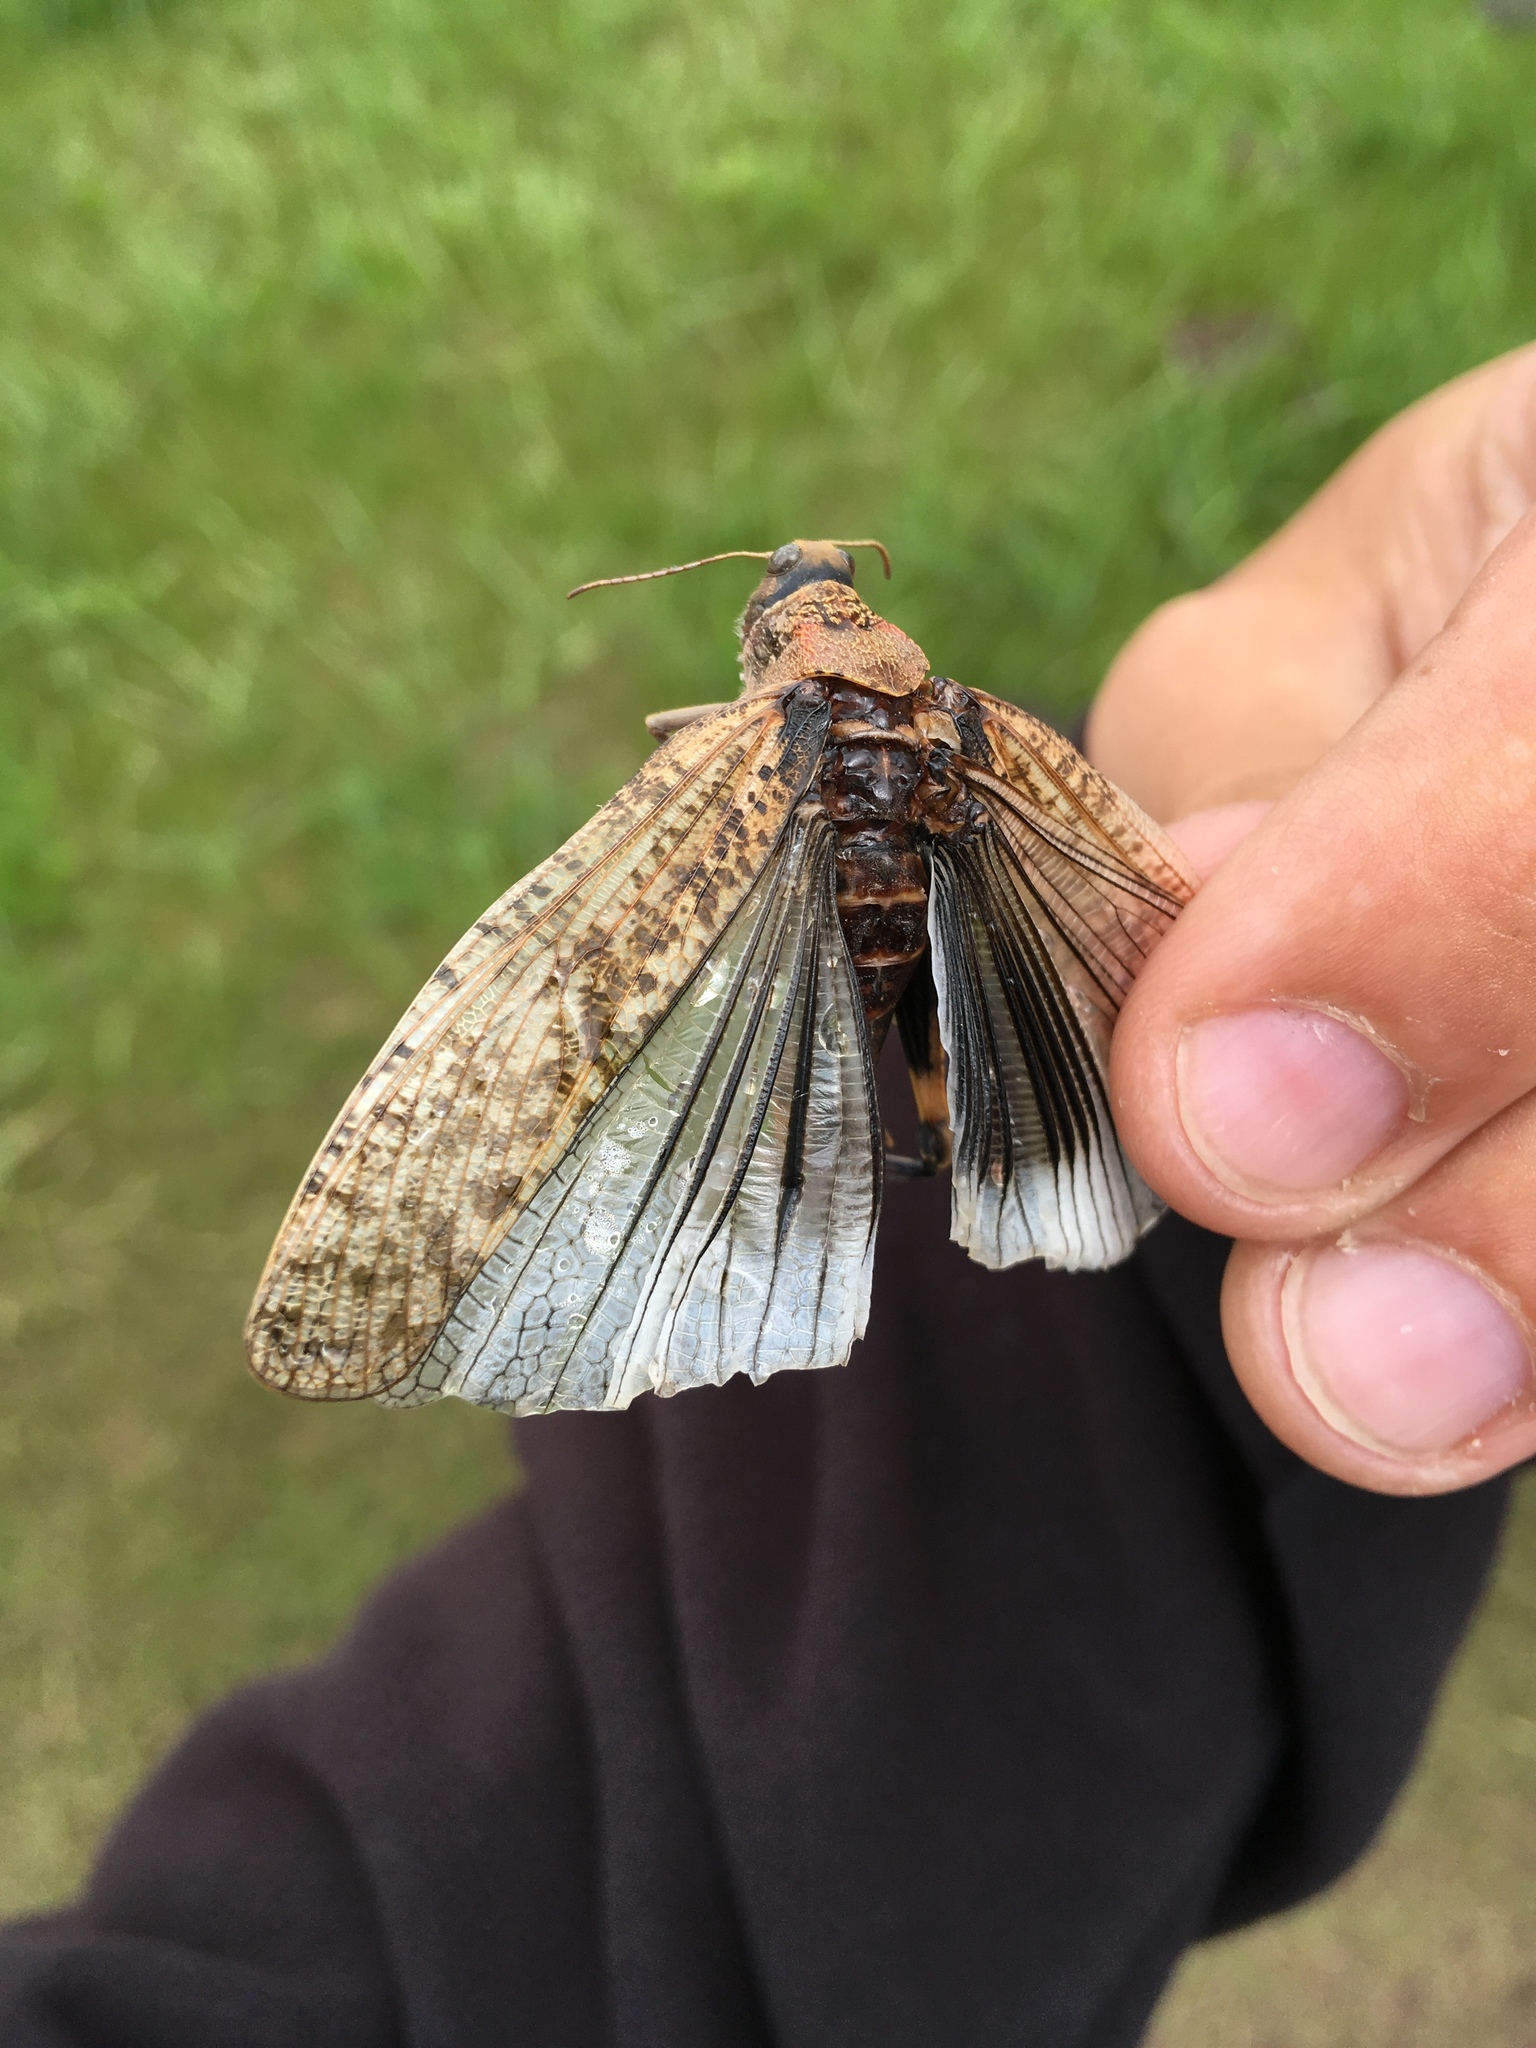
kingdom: Animalia
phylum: Arthropoda
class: Insecta
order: Orthoptera
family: Acrididae
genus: Bryodema
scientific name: Bryodema luctuosum
